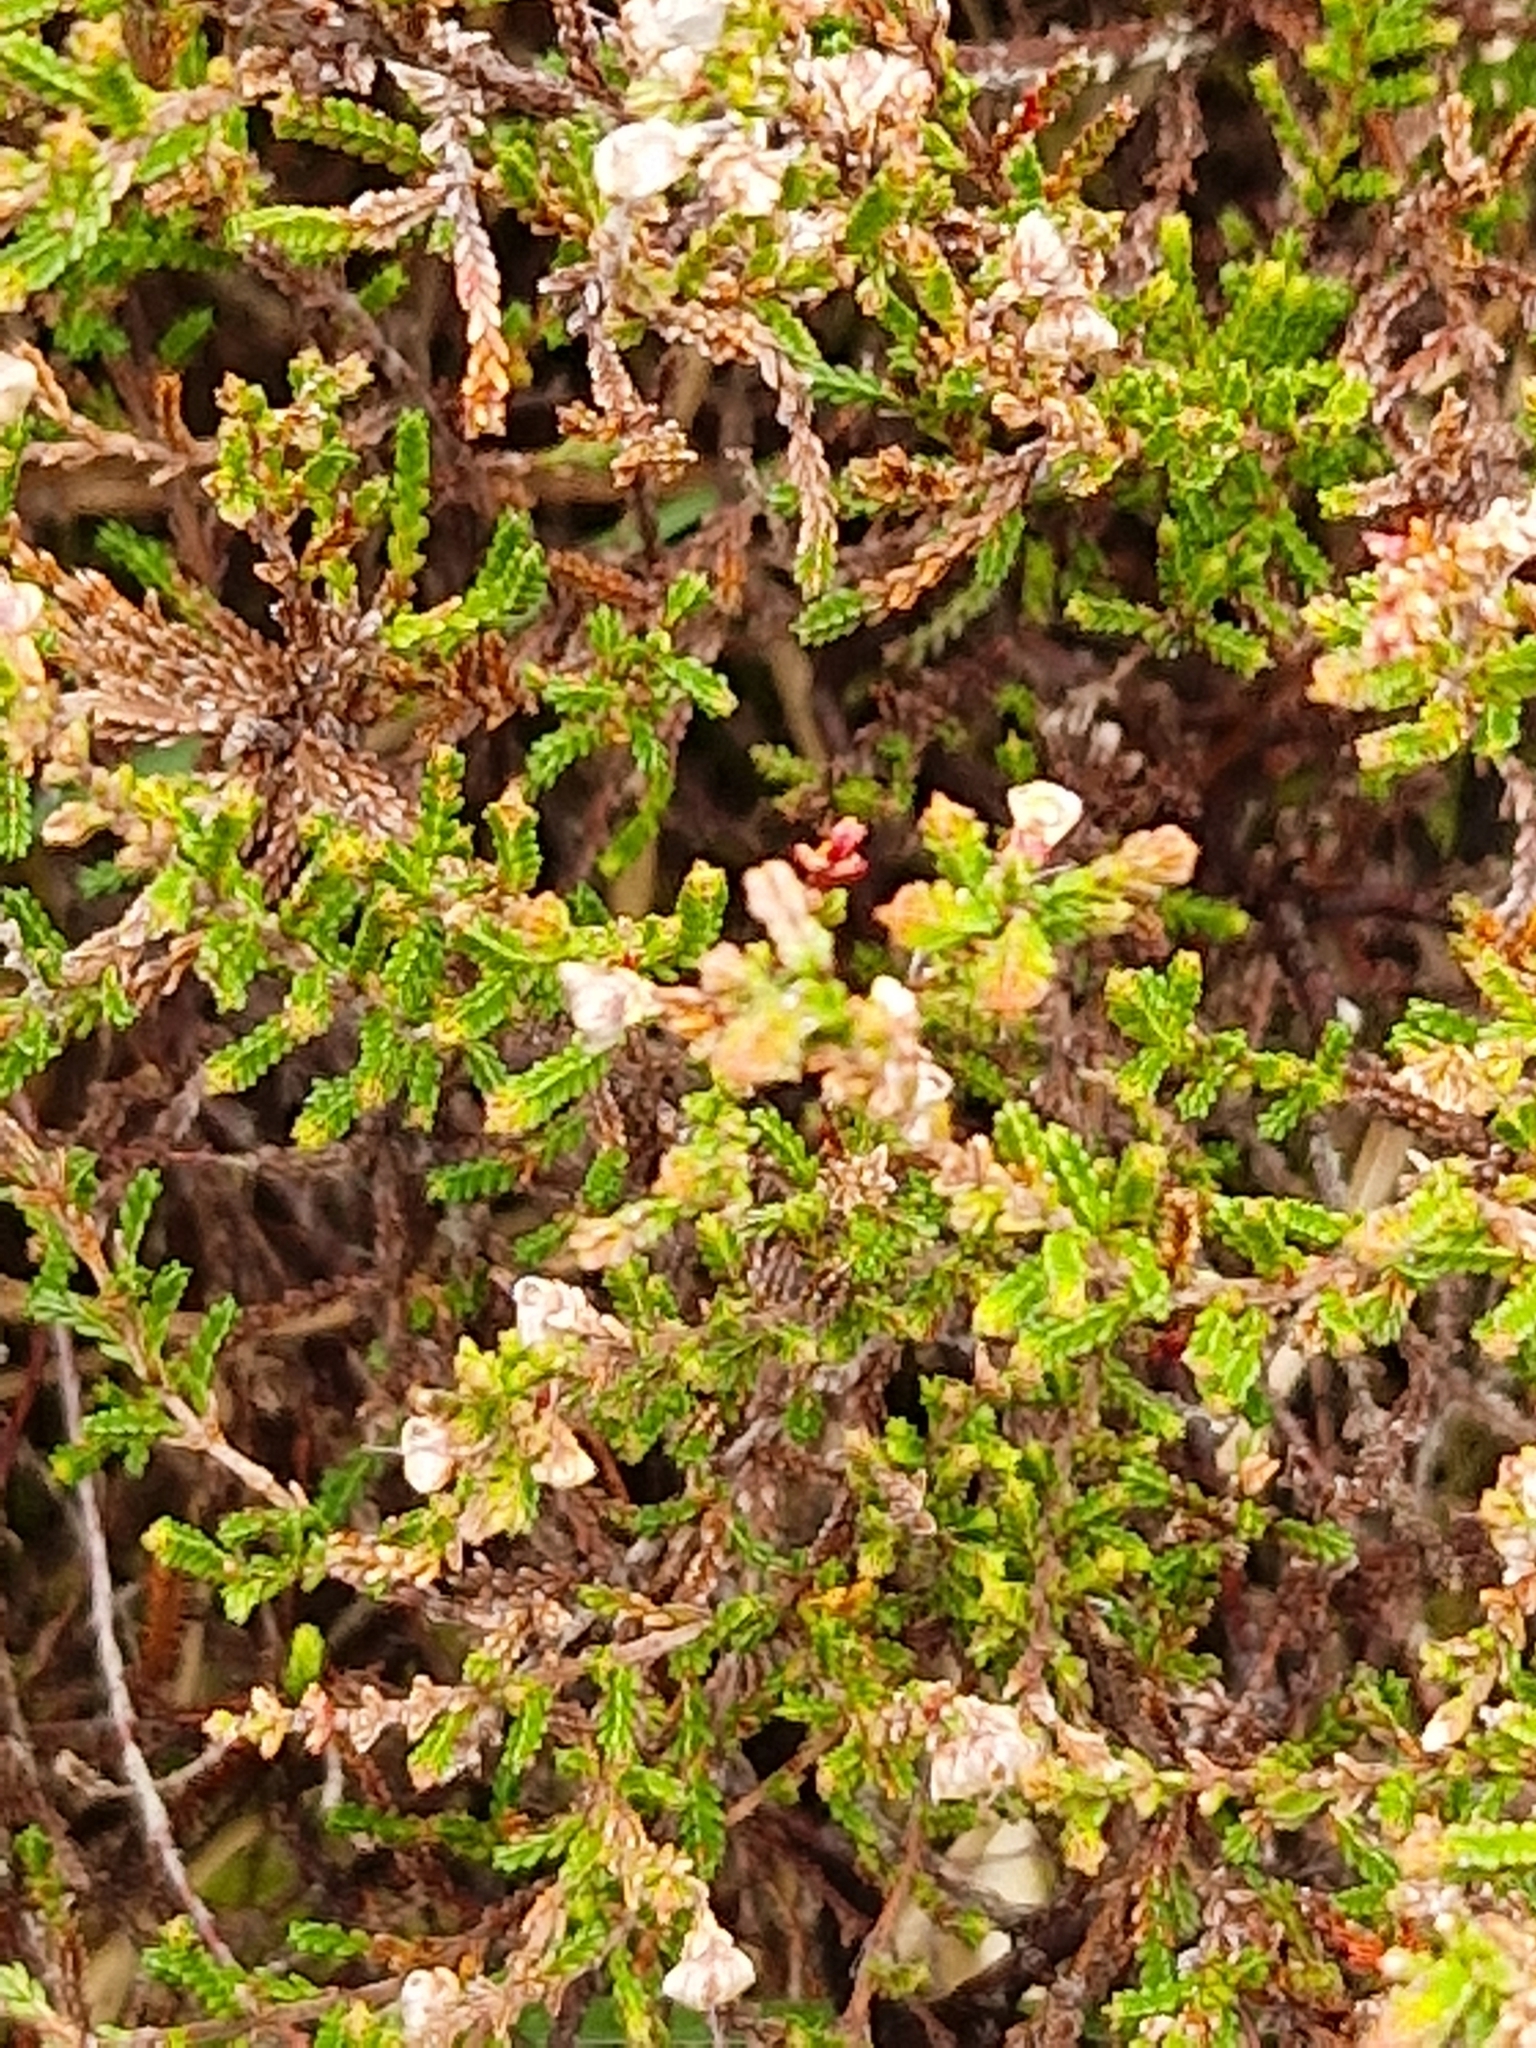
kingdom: Plantae
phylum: Tracheophyta
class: Magnoliopsida
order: Ericales
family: Ericaceae
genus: Calluna
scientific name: Calluna vulgaris
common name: Heather
